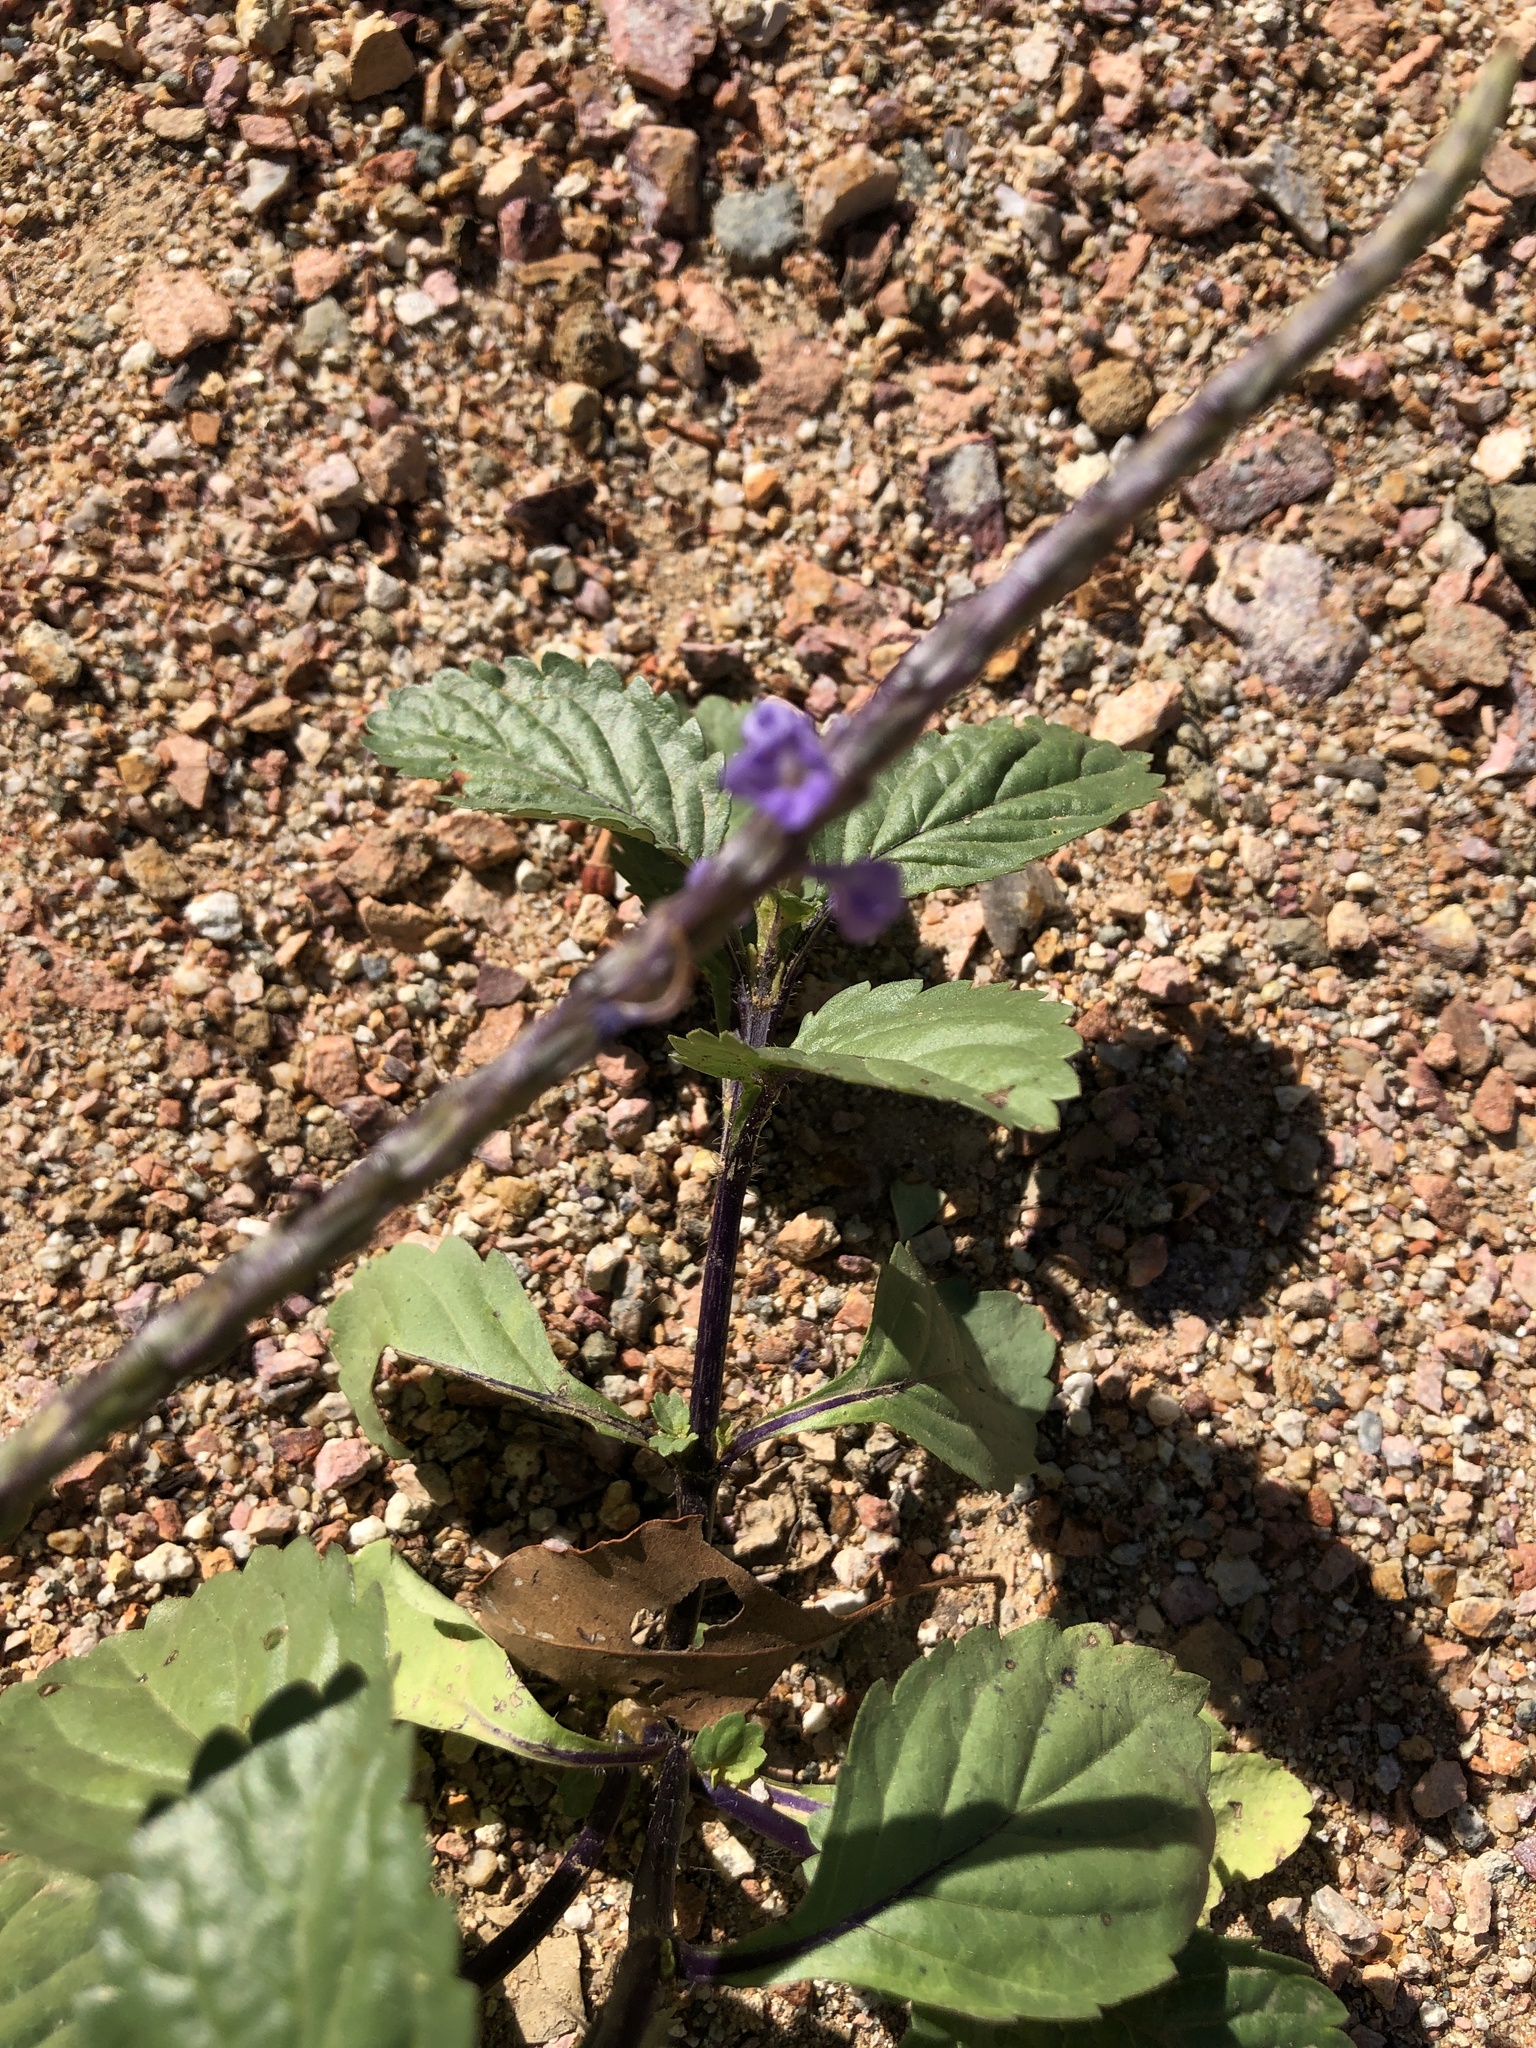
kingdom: Plantae
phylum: Tracheophyta
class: Magnoliopsida
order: Lamiales
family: Verbenaceae
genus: Stachytarpheta
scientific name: Stachytarpheta jamaicensis
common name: Light-blue snakeweed
